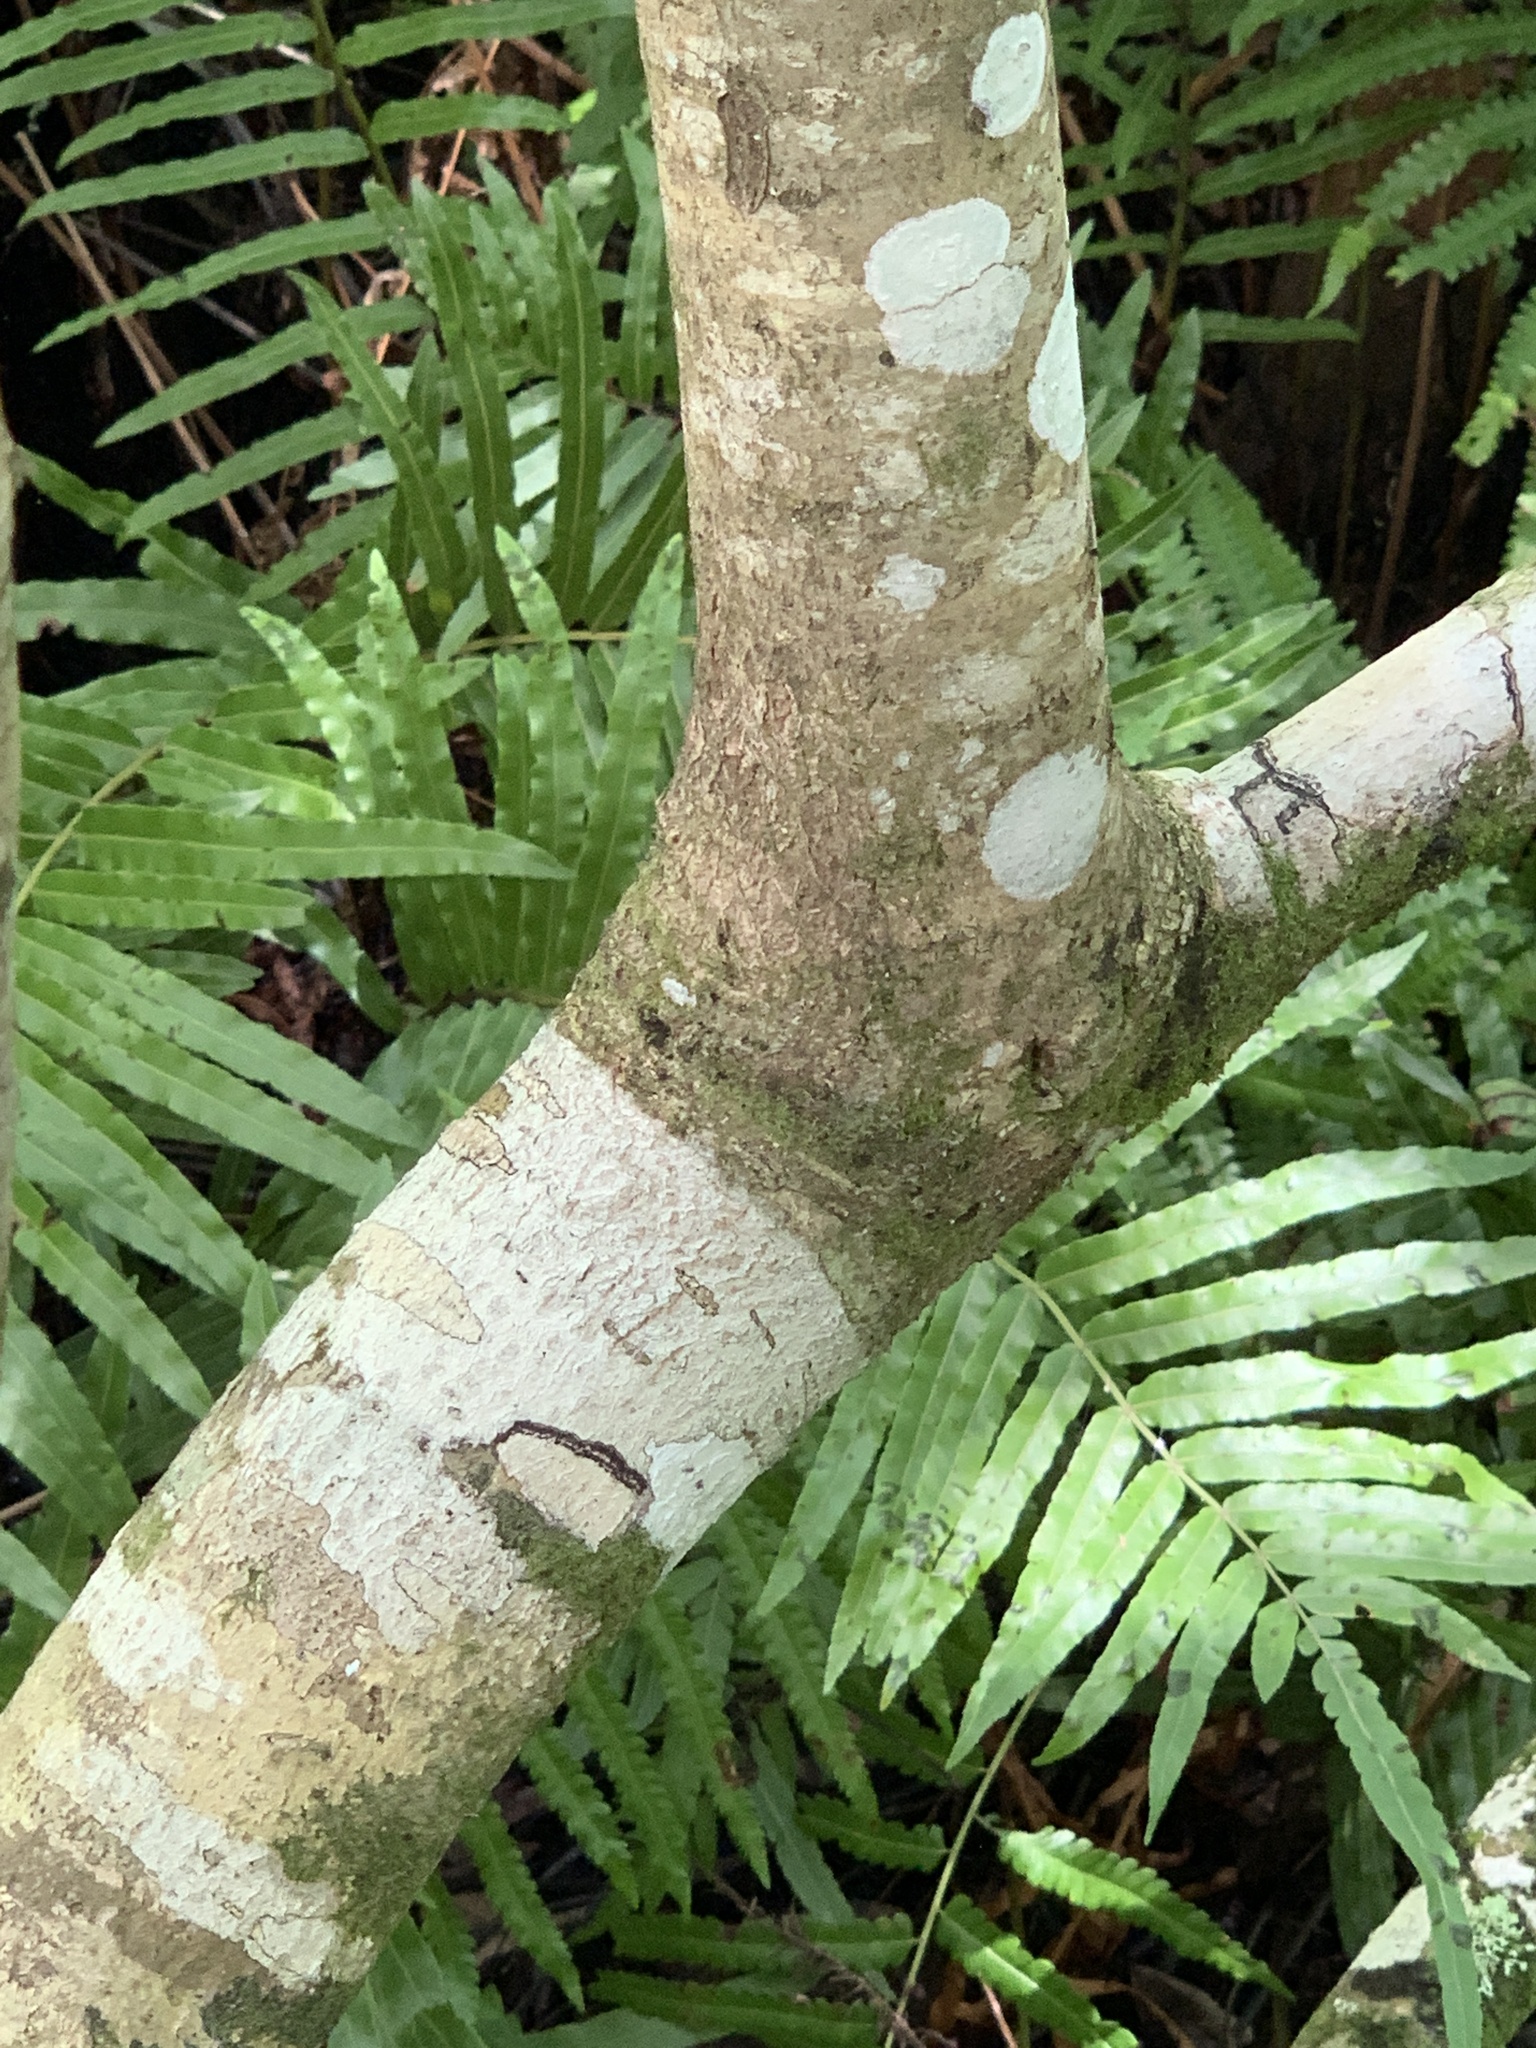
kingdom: Plantae
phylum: Tracheophyta
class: Magnoliopsida
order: Aquifoliales
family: Aquifoliaceae
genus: Ilex
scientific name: Ilex cassine
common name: Dahoon
